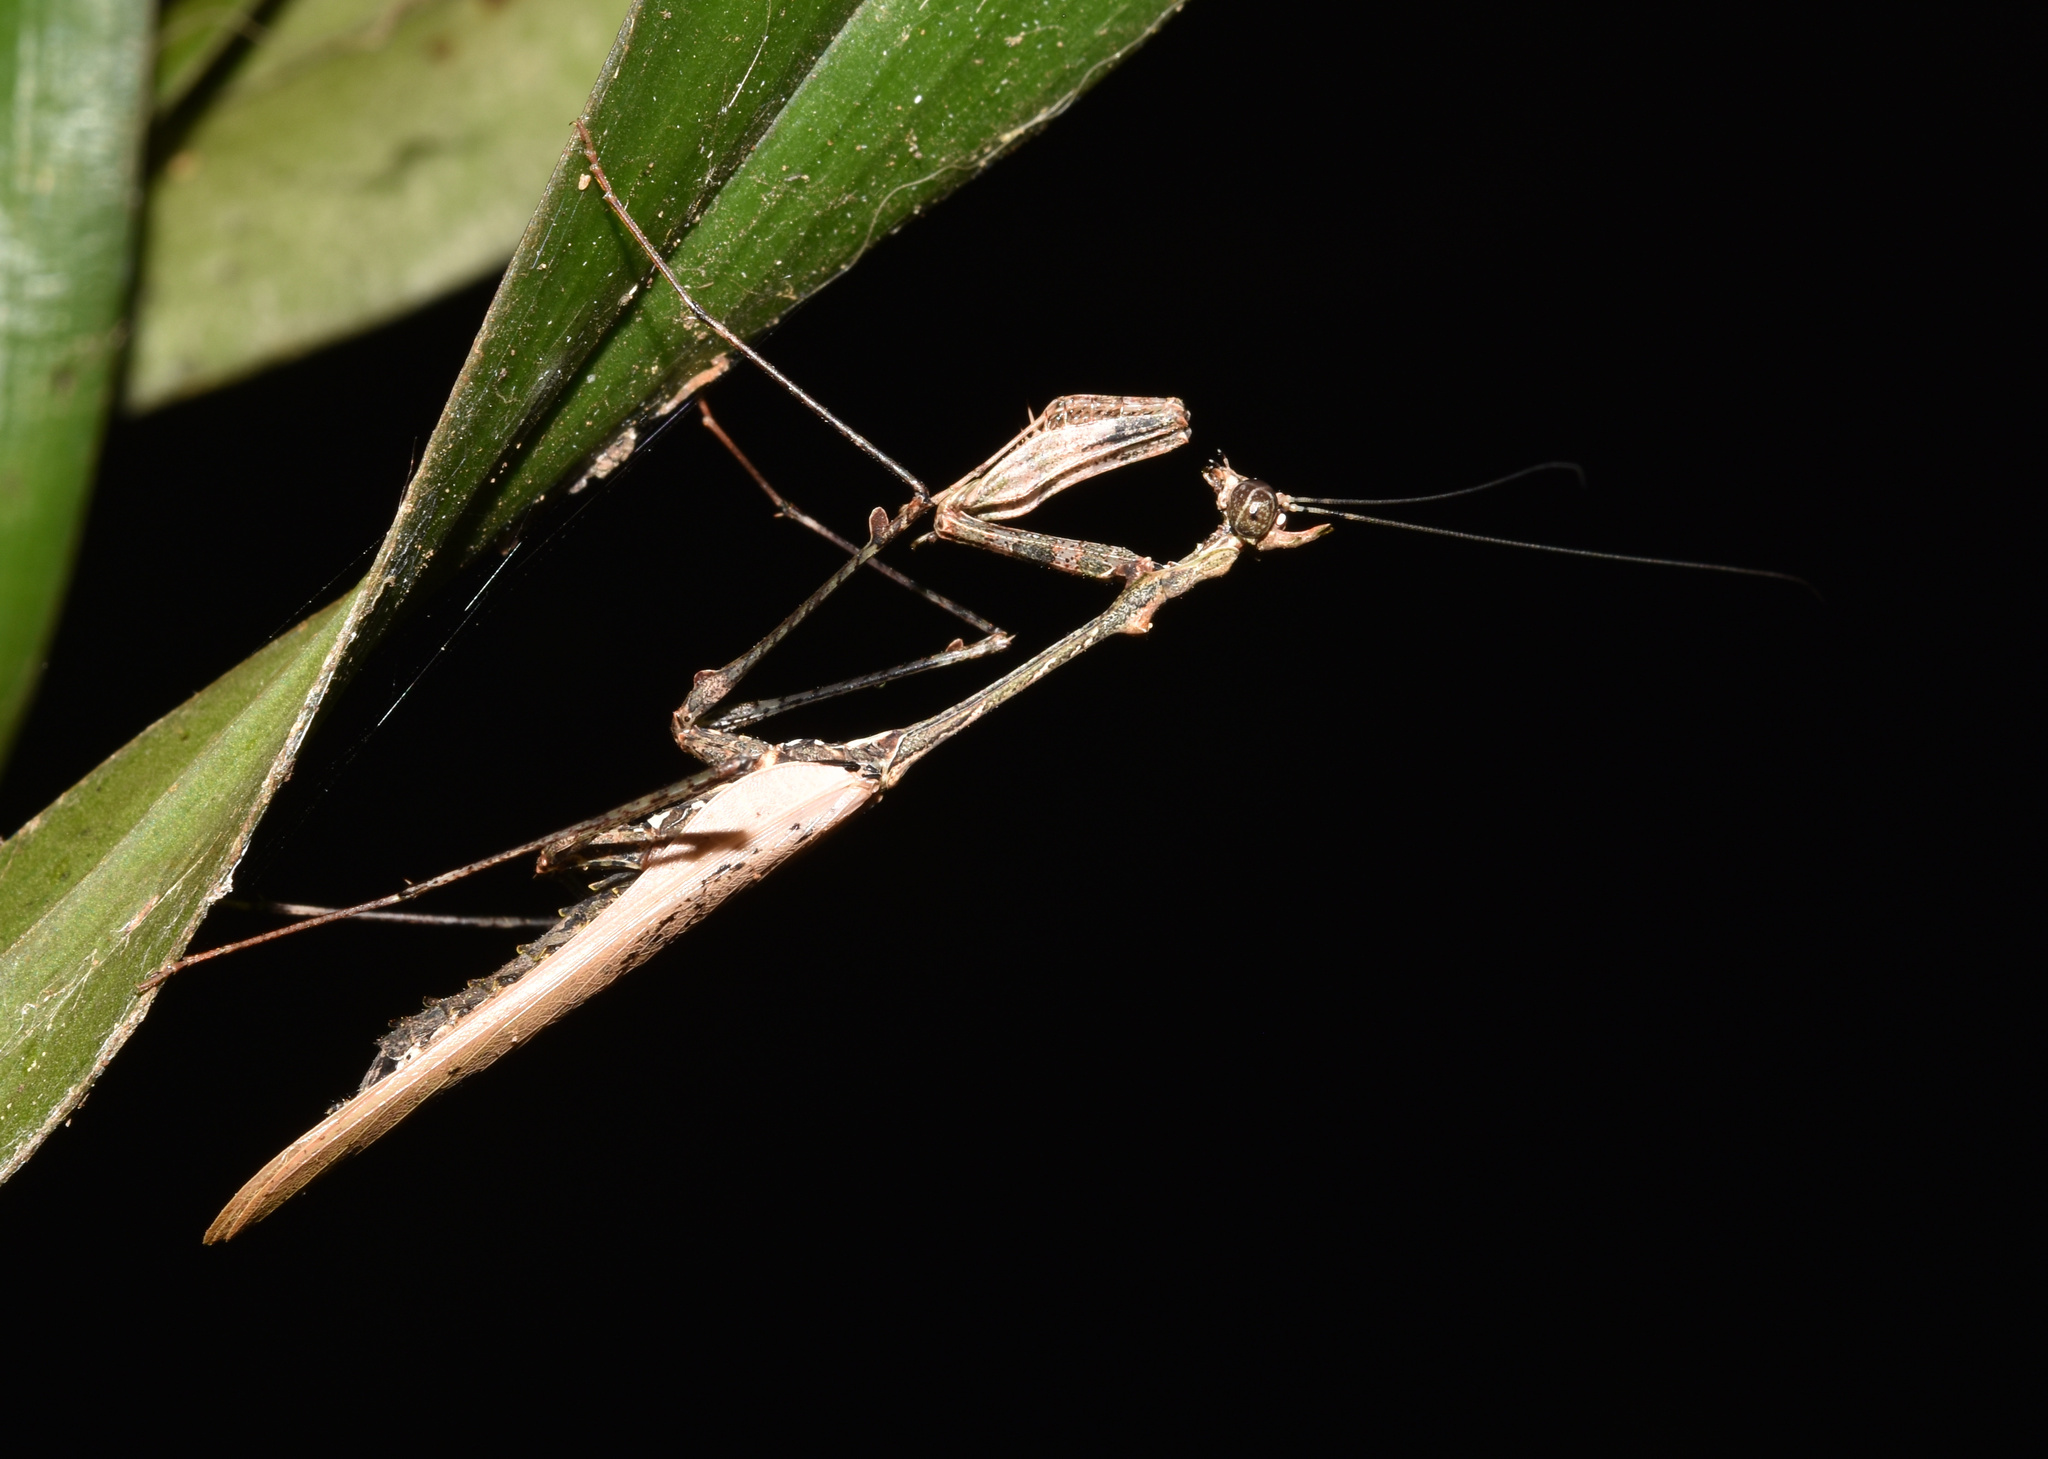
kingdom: Animalia
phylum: Arthropoda
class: Insecta
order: Mantodea
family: Hymenopodidae
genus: Sibylla
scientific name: Sibylla pretiosa
